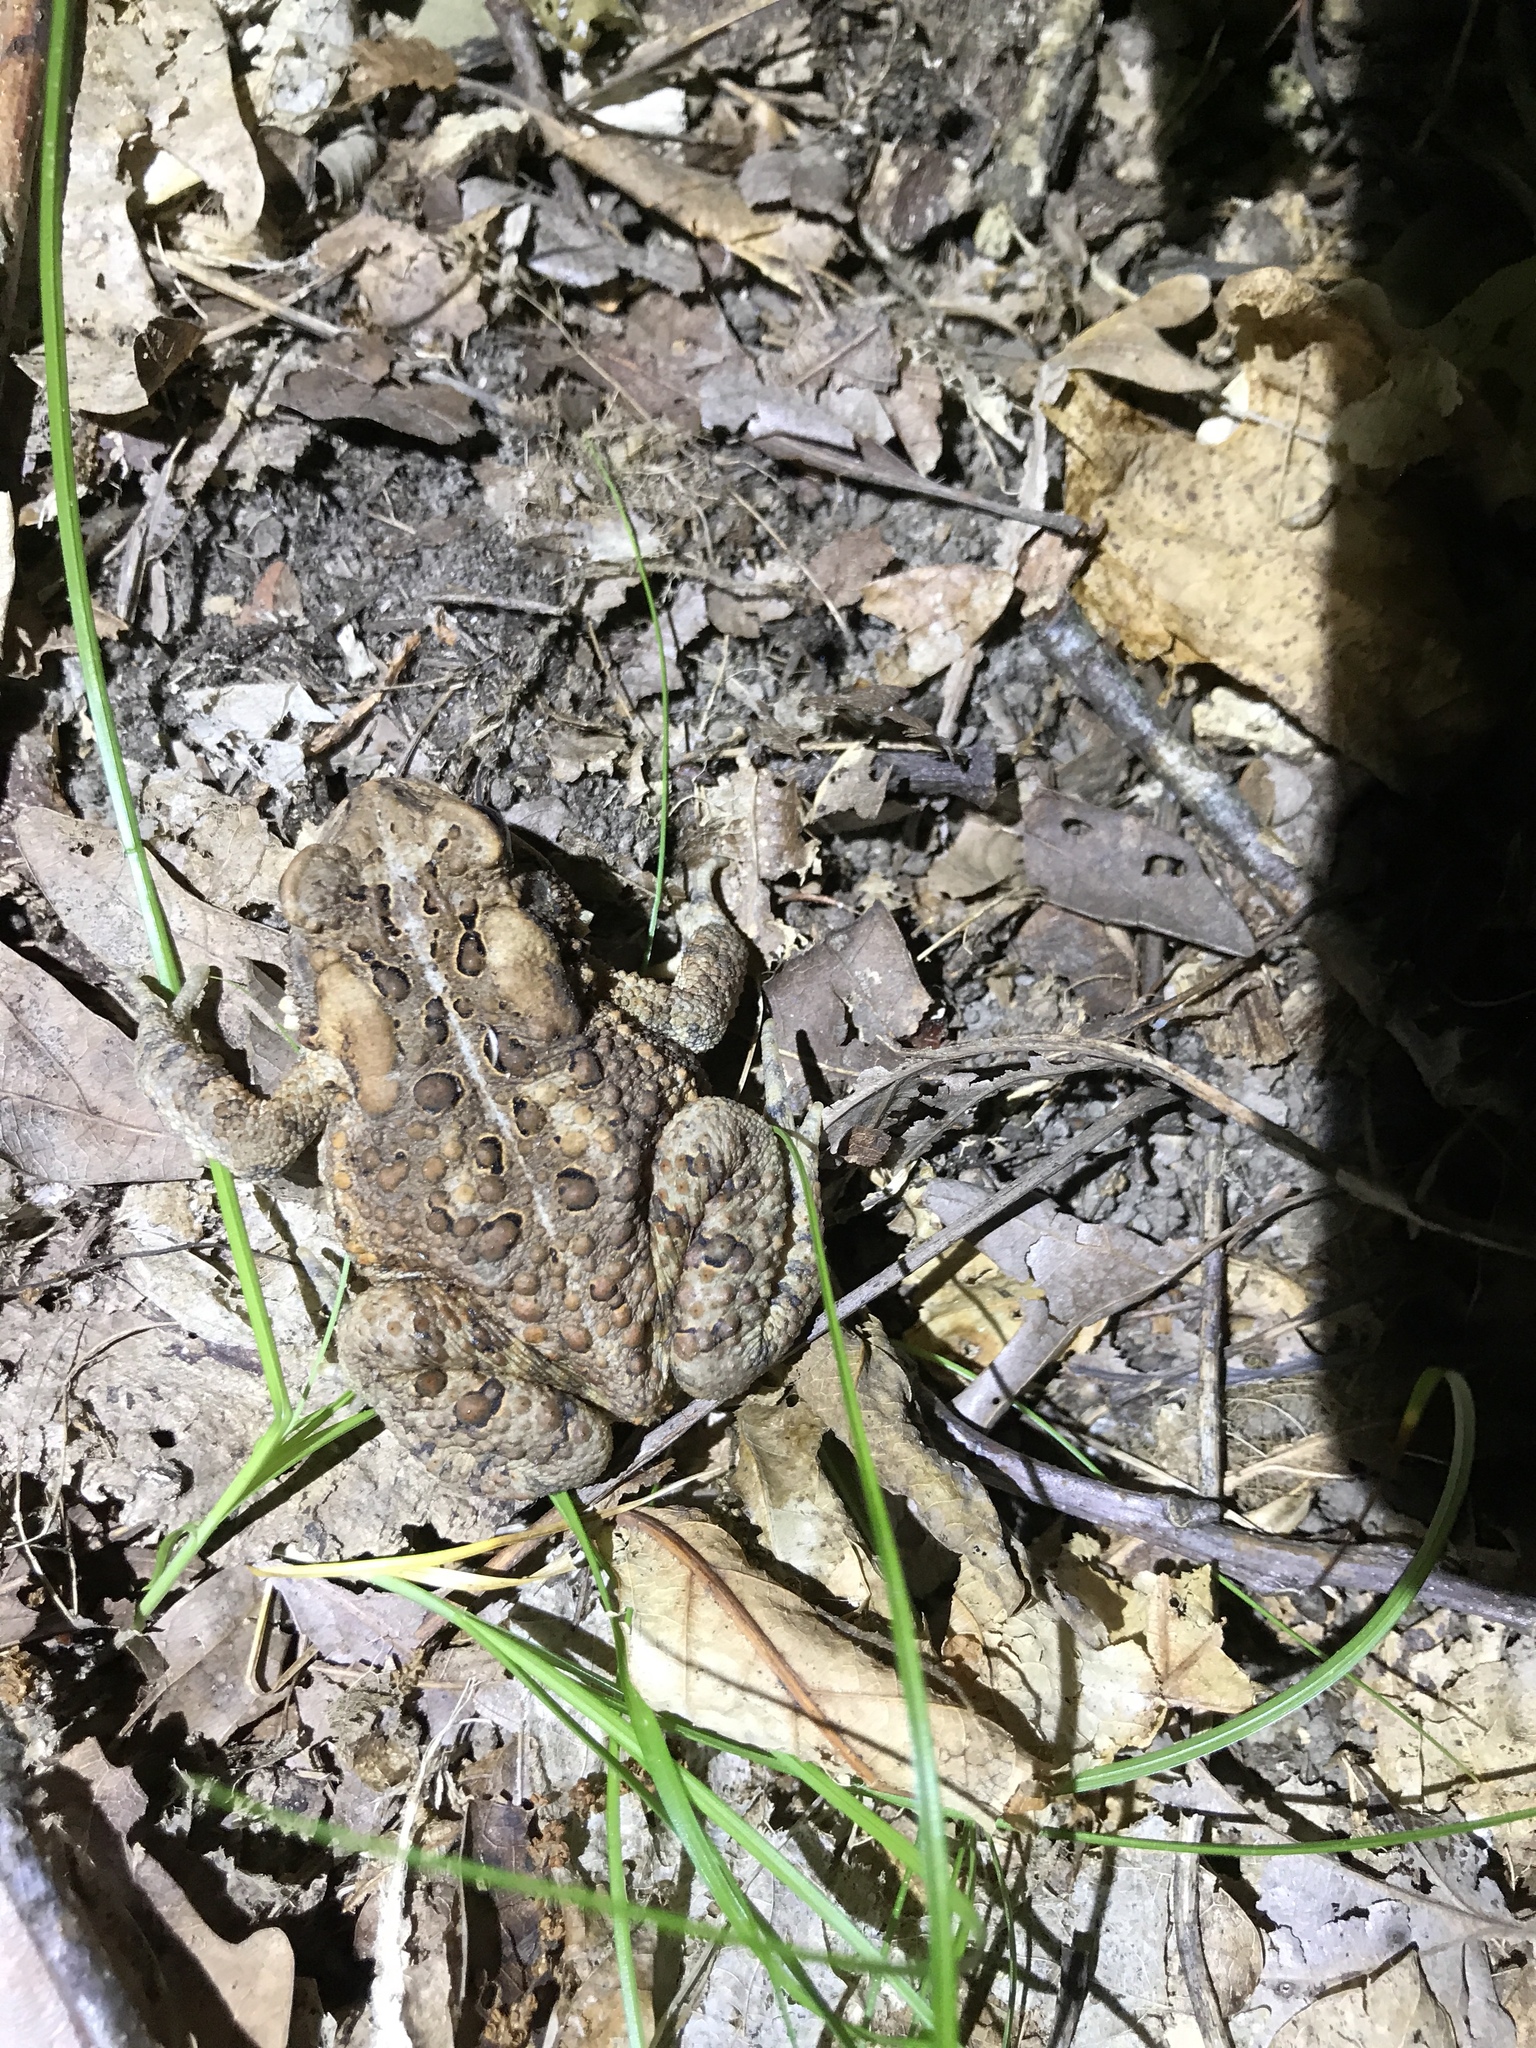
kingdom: Animalia
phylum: Chordata
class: Amphibia
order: Anura
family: Bufonidae
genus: Anaxyrus
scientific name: Anaxyrus americanus
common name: American toad
